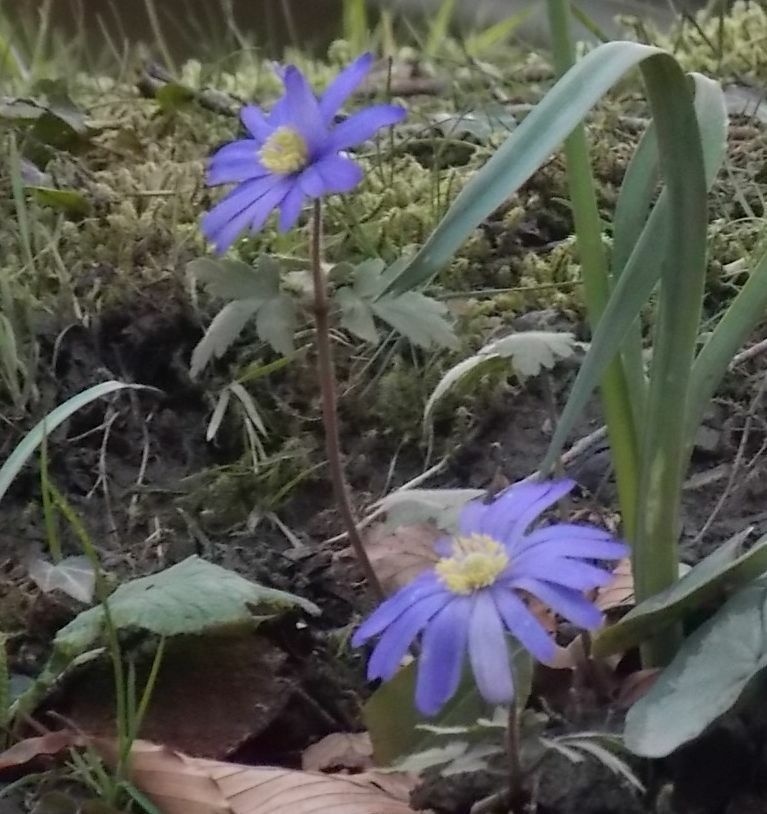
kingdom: Plantae
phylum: Tracheophyta
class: Magnoliopsida
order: Ranunculales
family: Ranunculaceae
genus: Anemone
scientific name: Anemone blanda
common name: Balkan anemone
